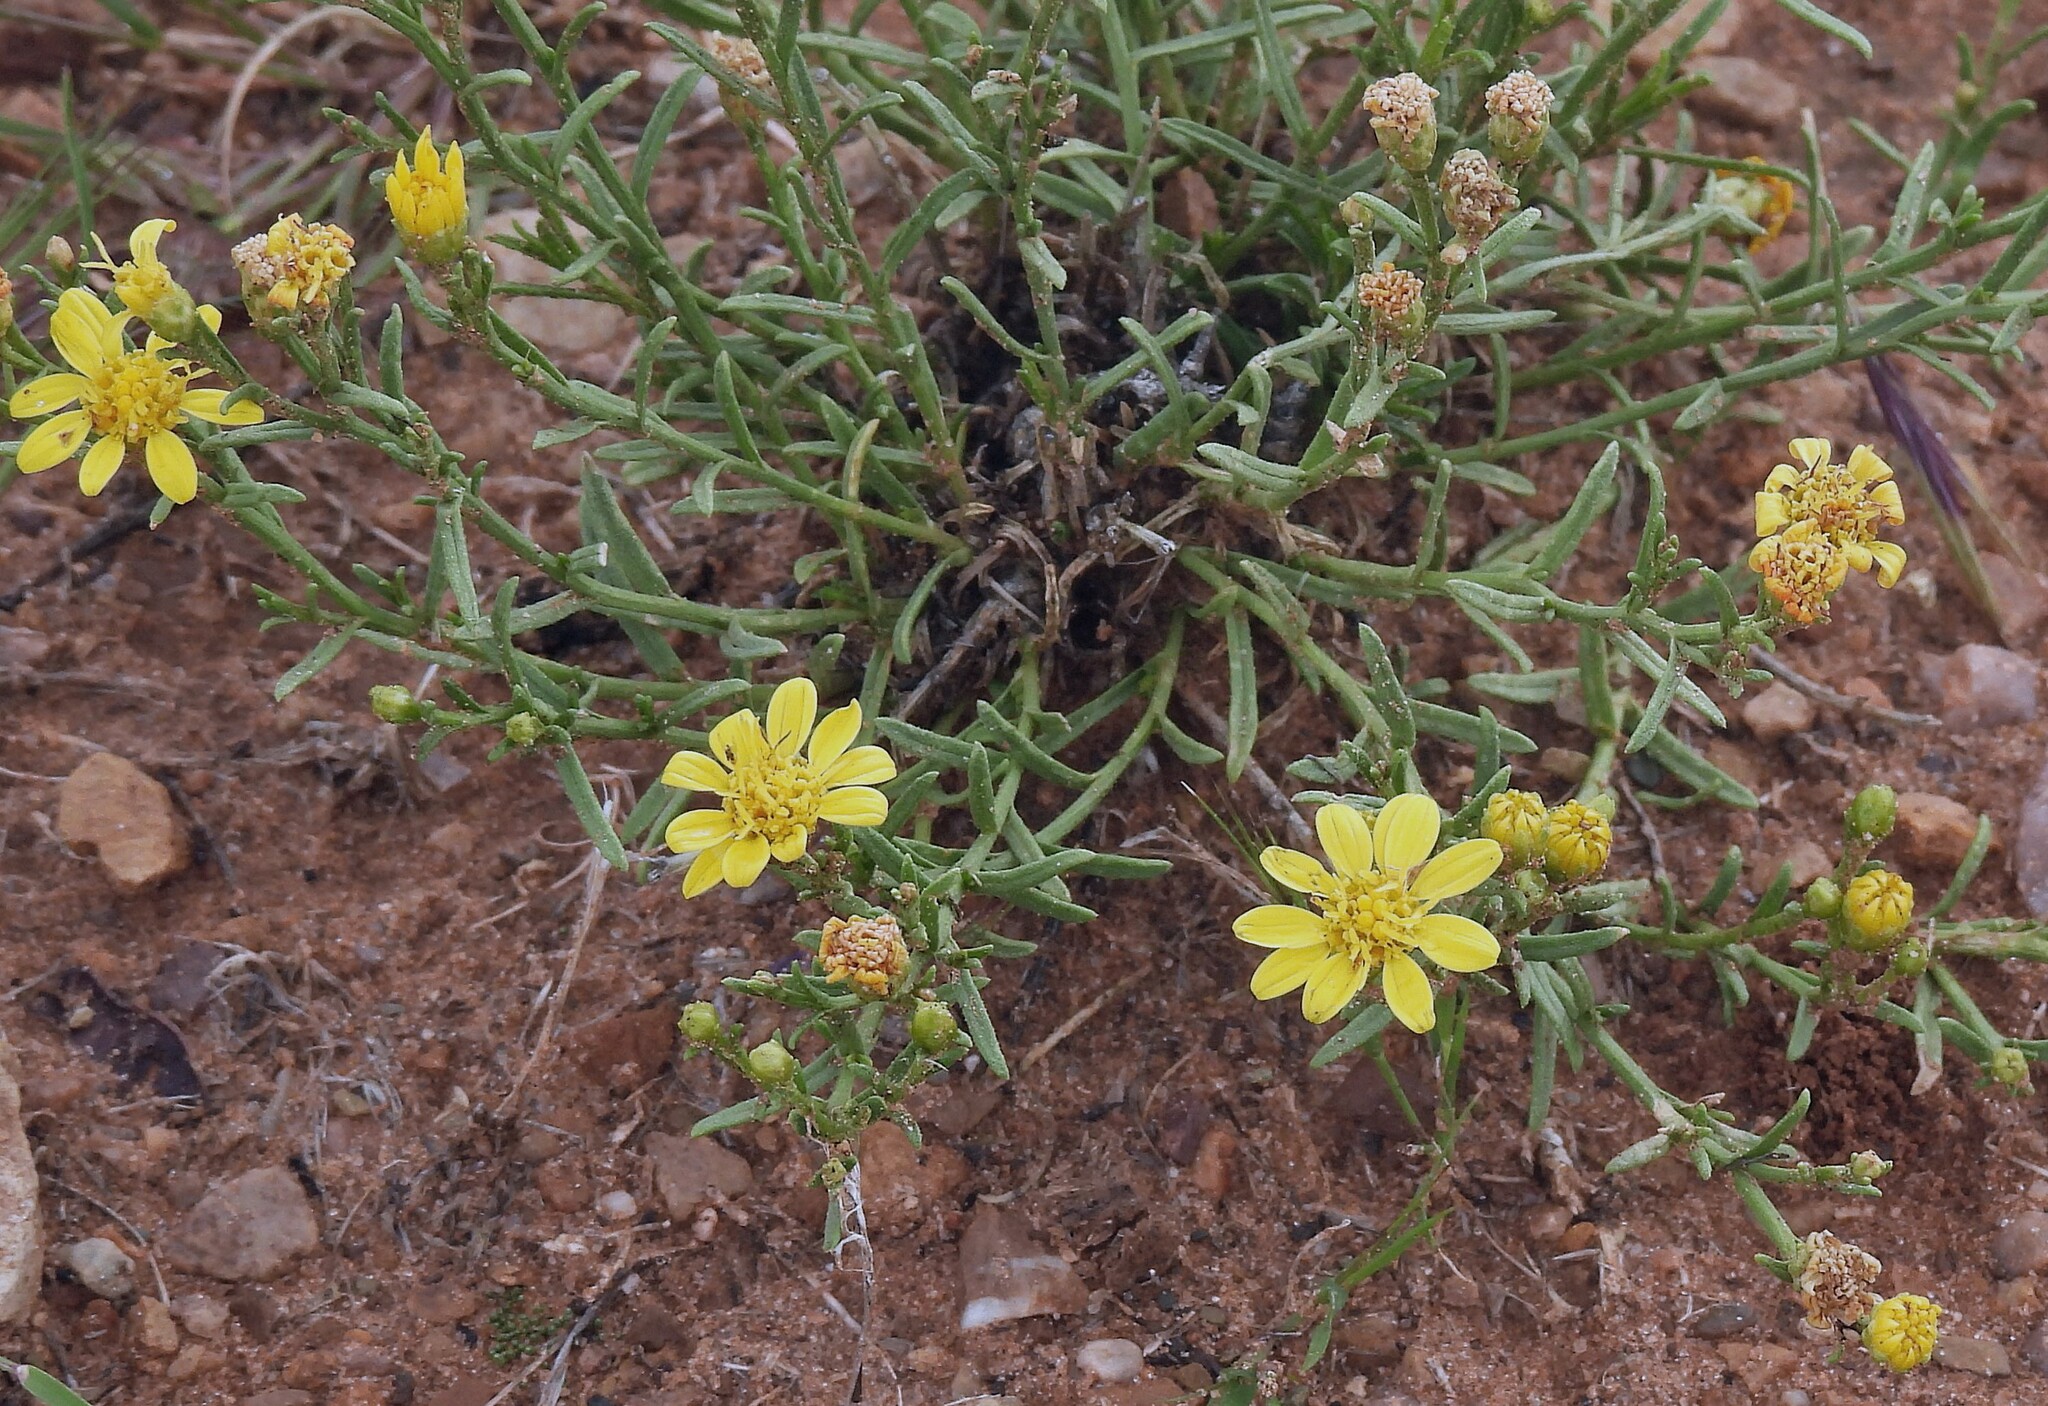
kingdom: Plantae
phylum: Tracheophyta
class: Magnoliopsida
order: Asterales
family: Asteraceae
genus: Gutierrezia
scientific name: Gutierrezia mandonii
